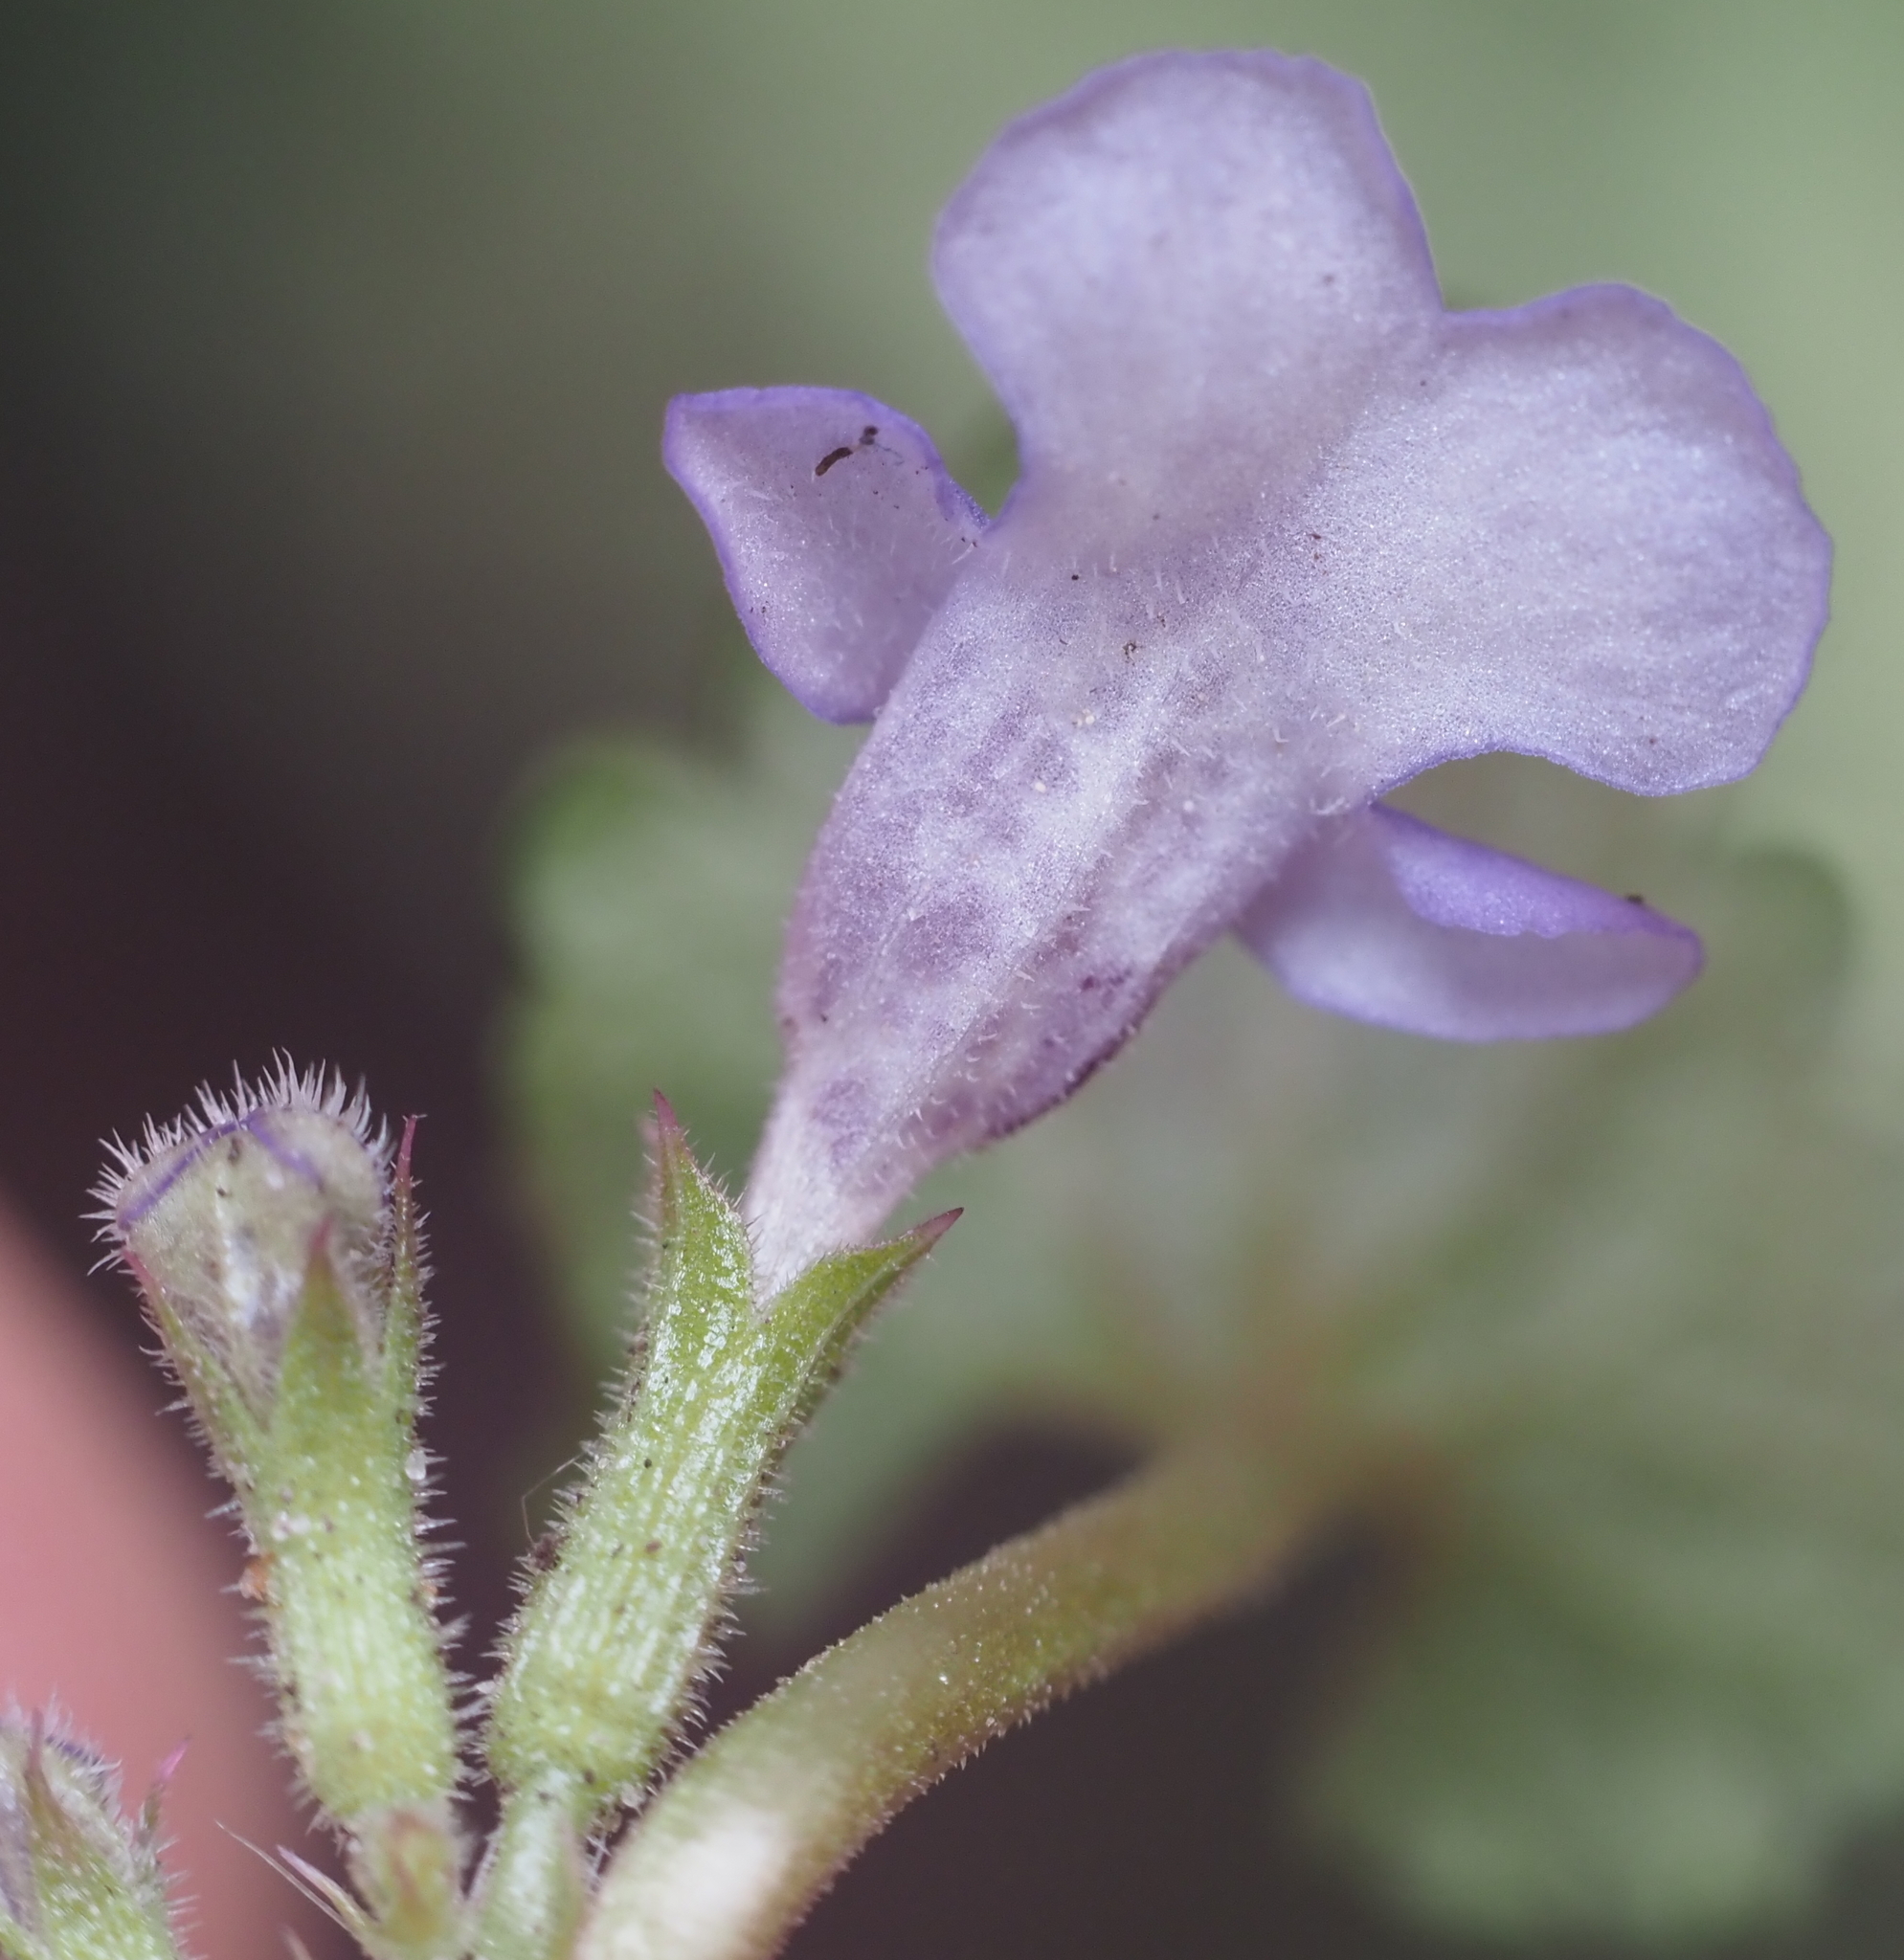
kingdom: Plantae
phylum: Tracheophyta
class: Magnoliopsida
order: Lamiales
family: Lamiaceae
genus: Glechoma
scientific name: Glechoma hederacea
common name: Ground ivy
